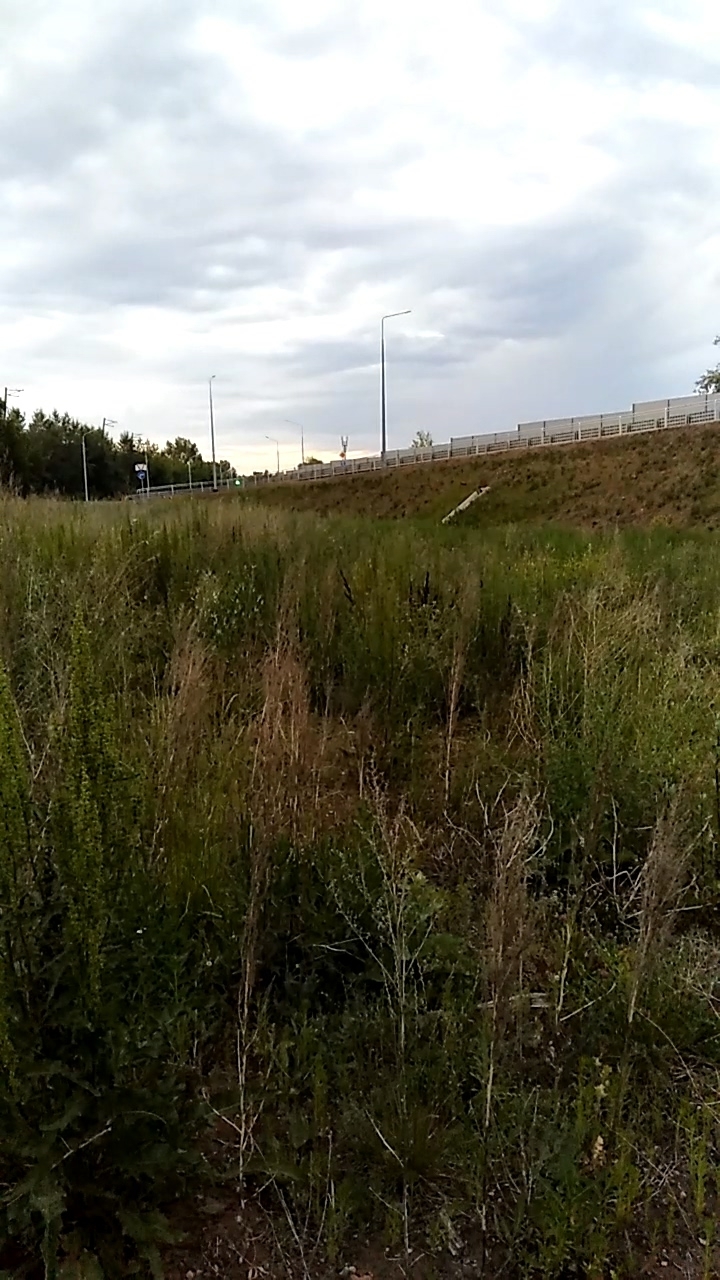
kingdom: Animalia
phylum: Chordata
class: Aves
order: Passeriformes
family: Muscicapidae
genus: Luscinia
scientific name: Luscinia svecica
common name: Bluethroat
